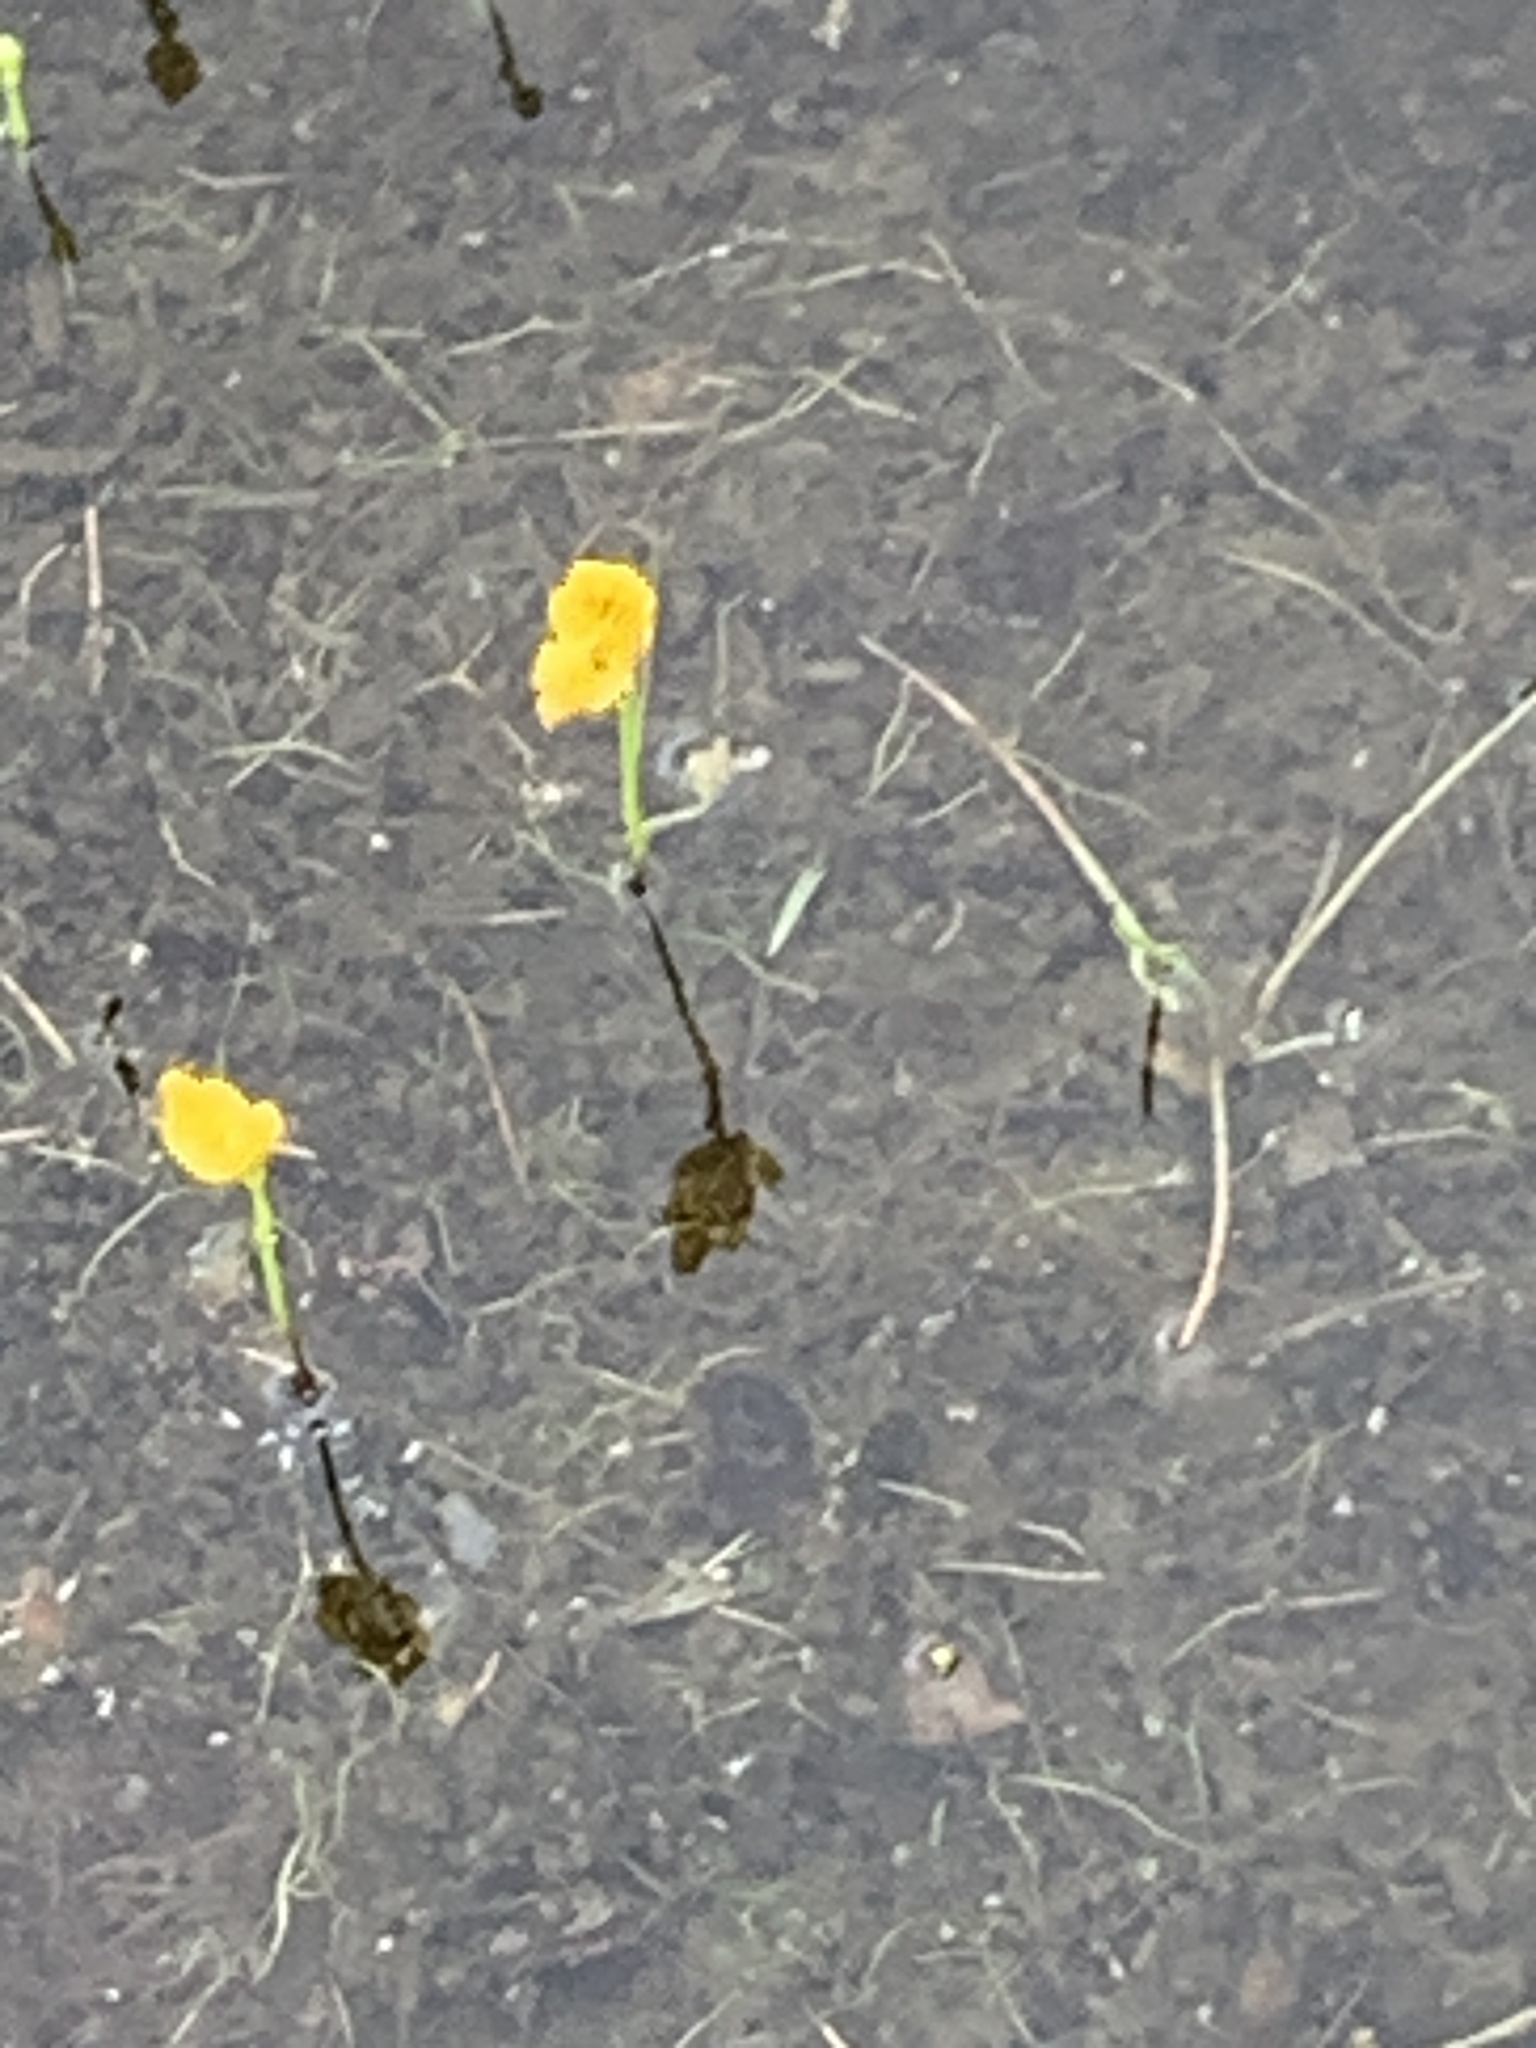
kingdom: Plantae
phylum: Tracheophyta
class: Magnoliopsida
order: Lamiales
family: Lentibulariaceae
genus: Utricularia
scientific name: Utricularia gibba
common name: Humped bladderwort
